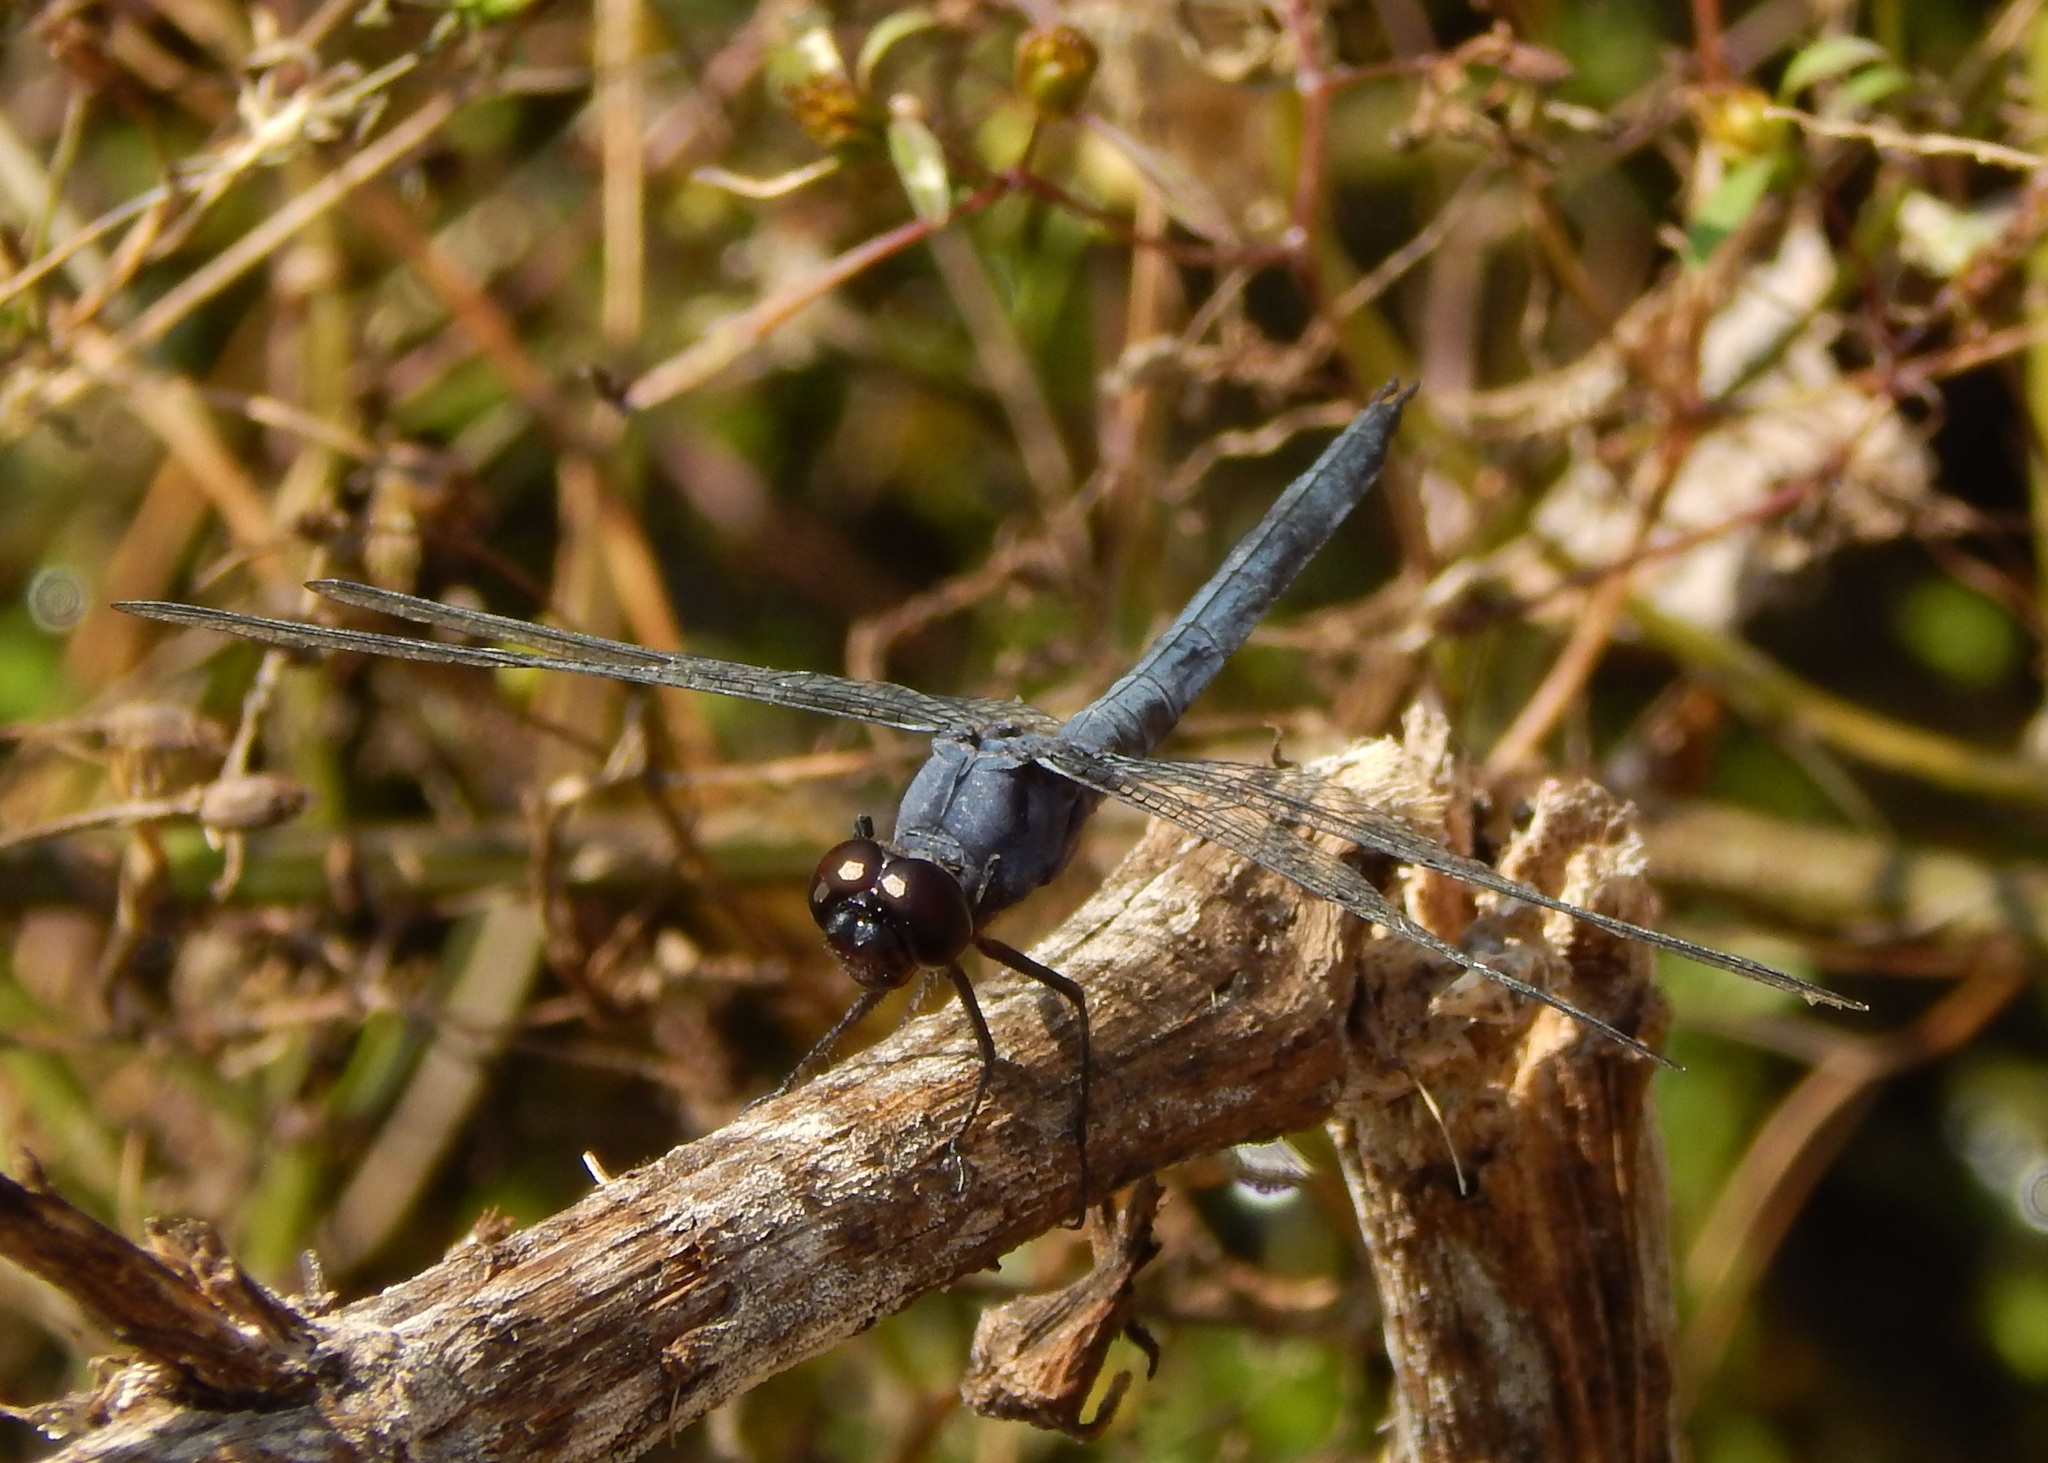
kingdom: Animalia
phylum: Arthropoda
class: Insecta
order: Odonata
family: Libellulidae
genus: Libellula
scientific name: Libellula incesta
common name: Slaty skimmer
